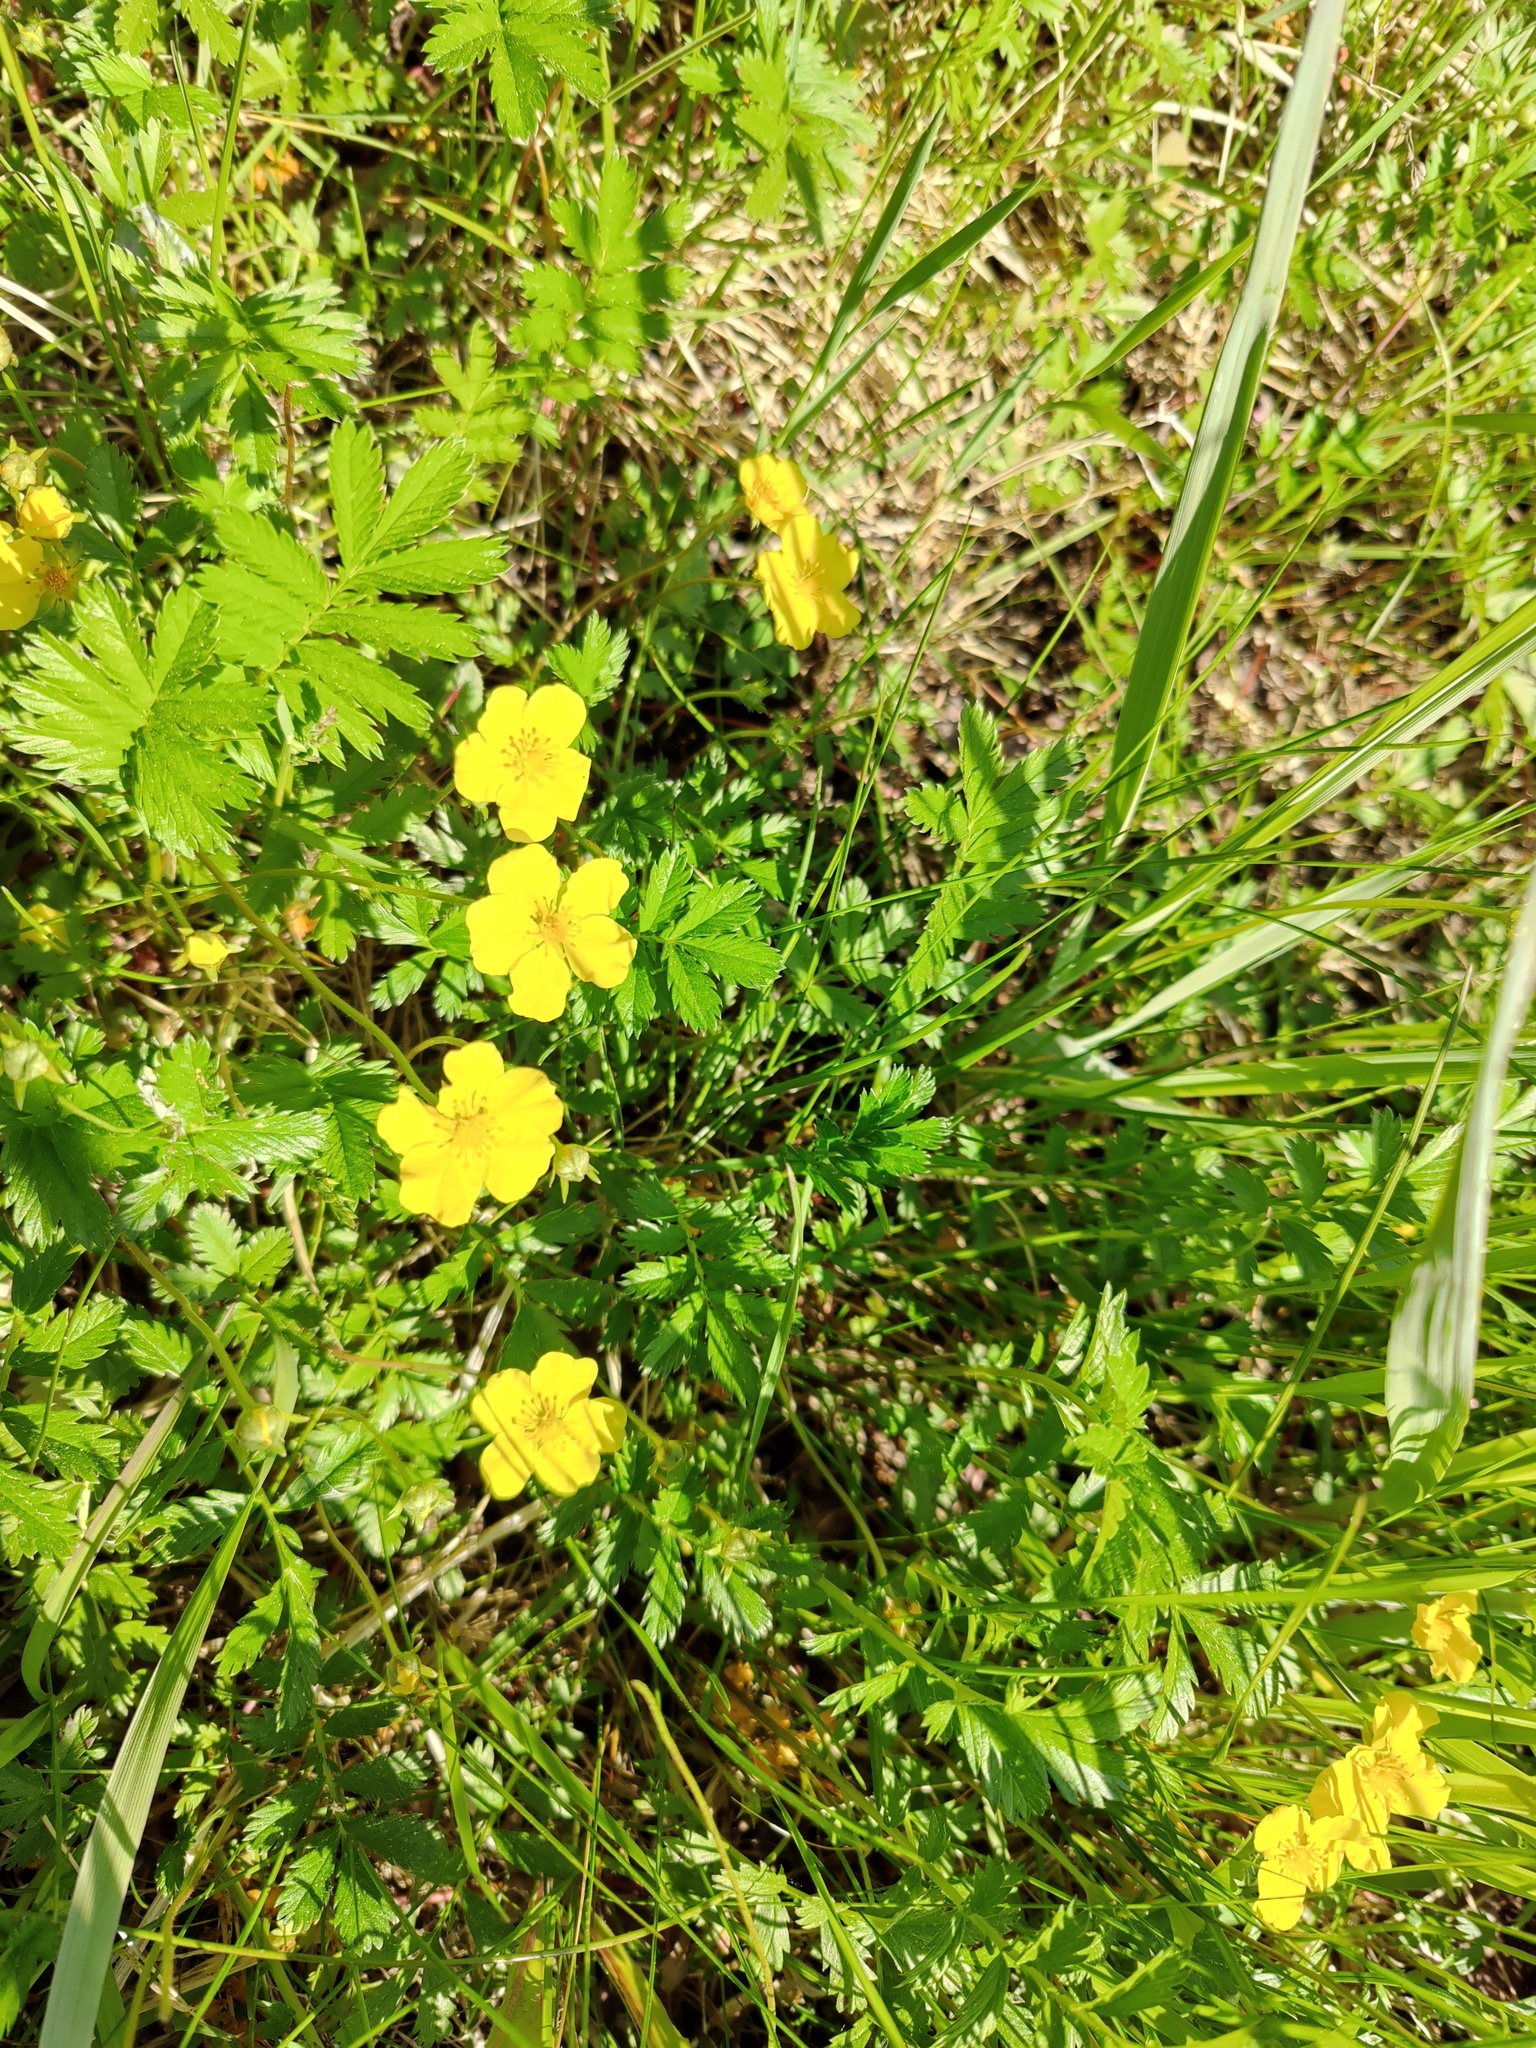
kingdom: Plantae
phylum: Tracheophyta
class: Magnoliopsida
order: Rosales
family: Rosaceae
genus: Argentina
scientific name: Argentina subarctica
